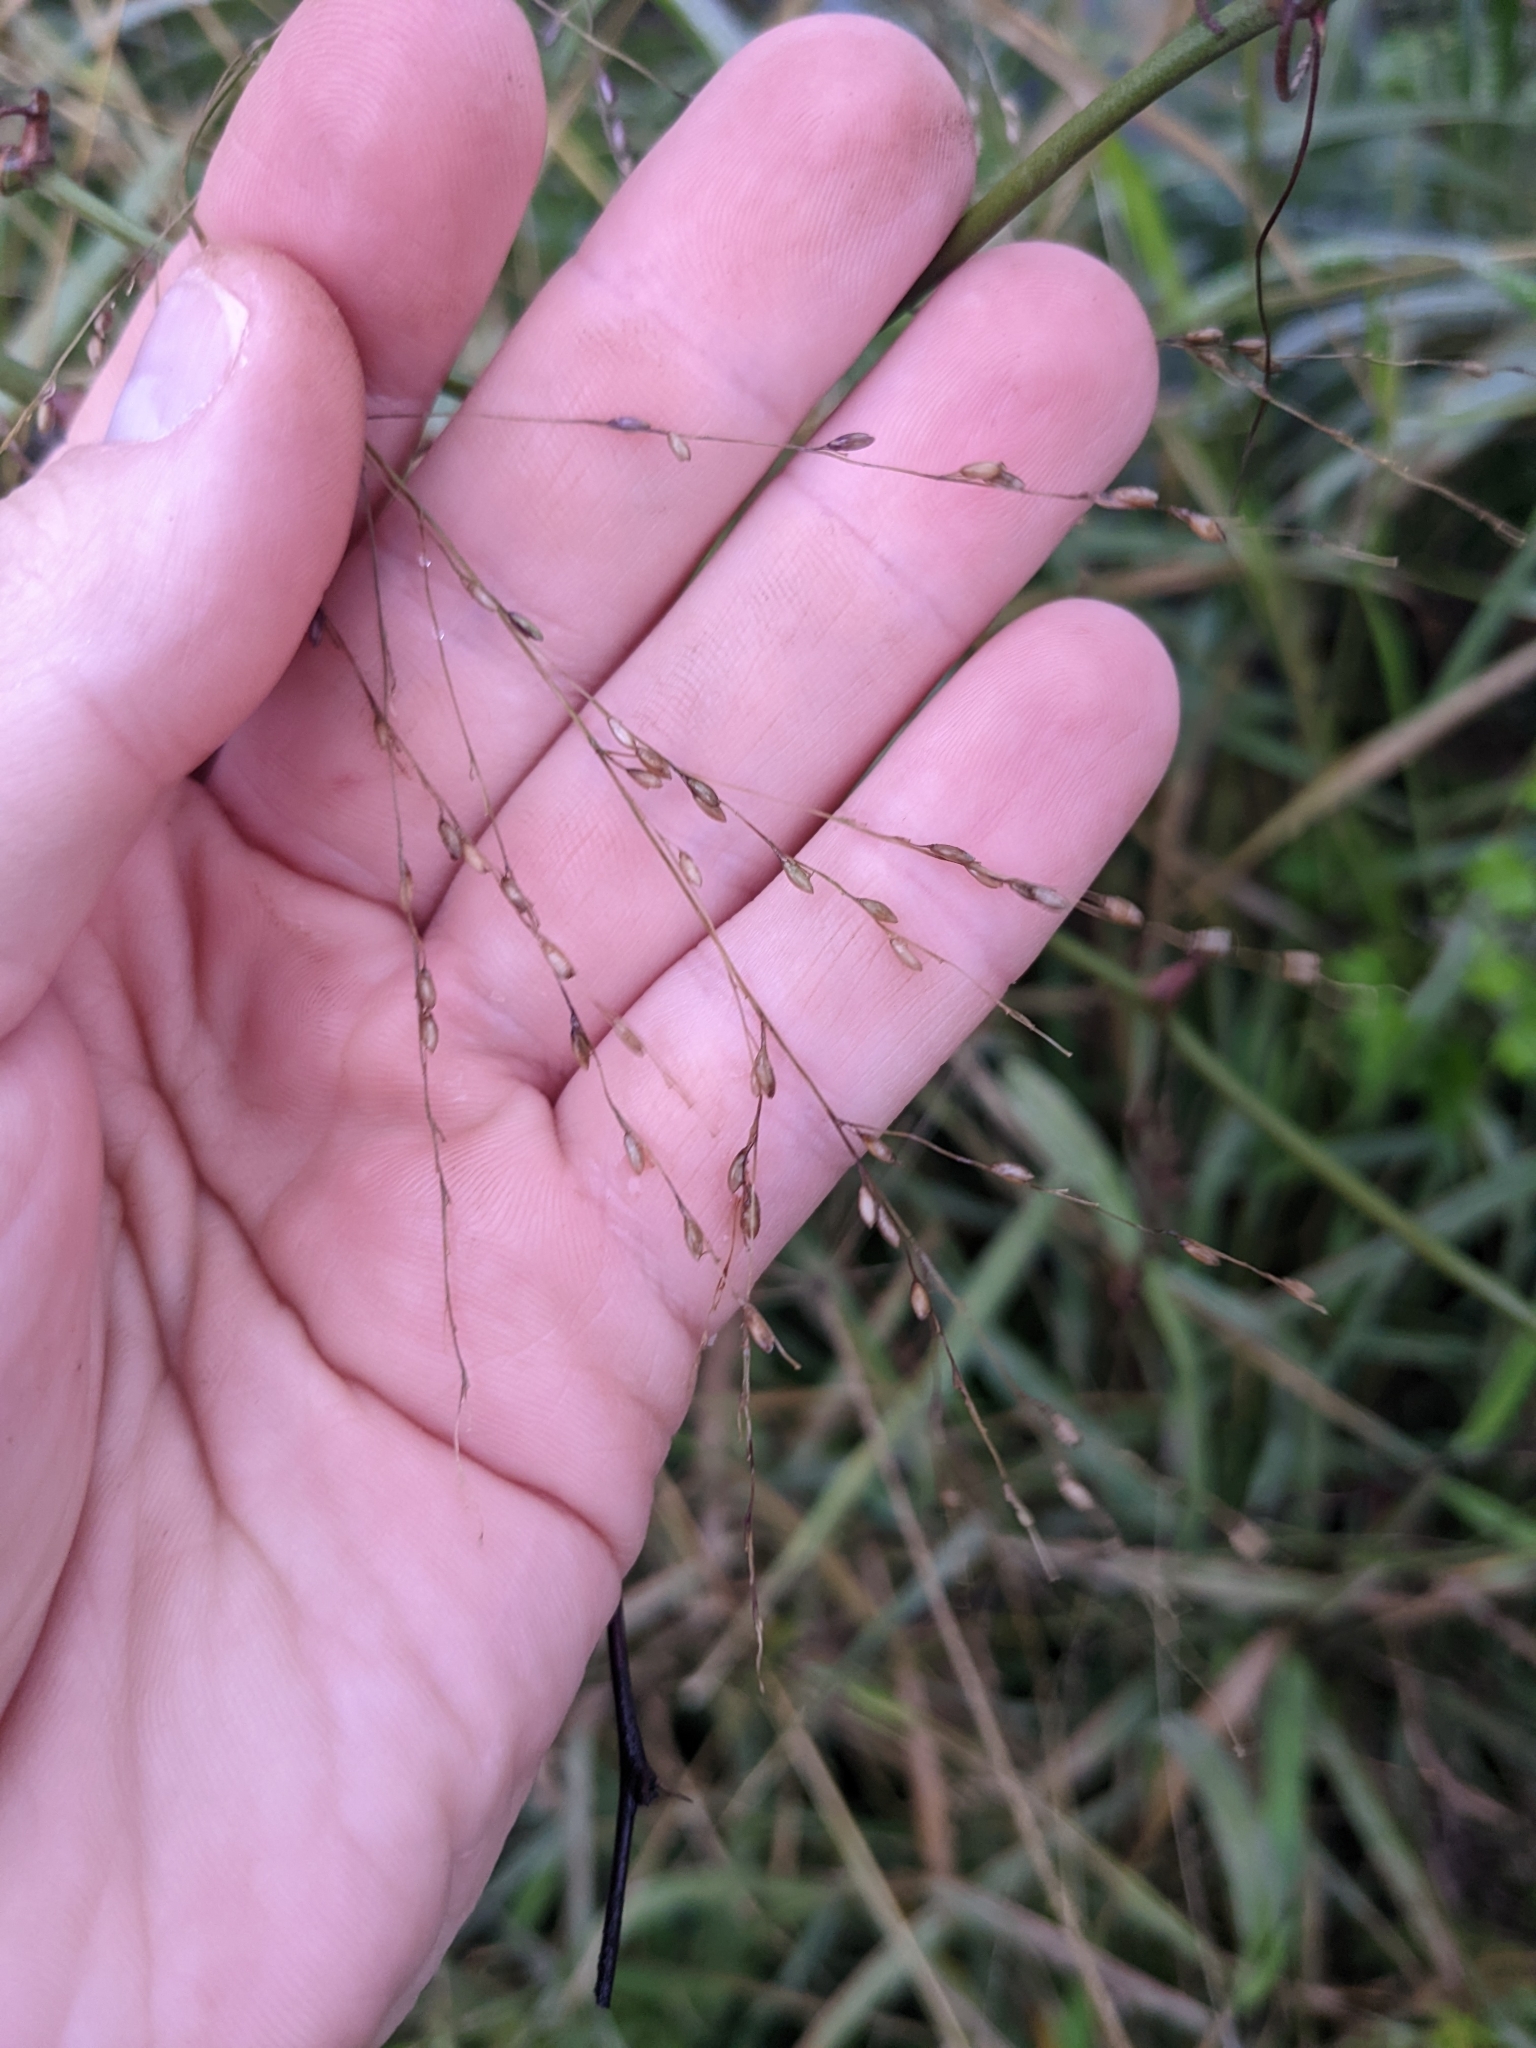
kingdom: Plantae
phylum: Tracheophyta
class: Liliopsida
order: Poales
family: Poaceae
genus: Megathyrsus
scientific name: Megathyrsus maximus
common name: Guineagrass
